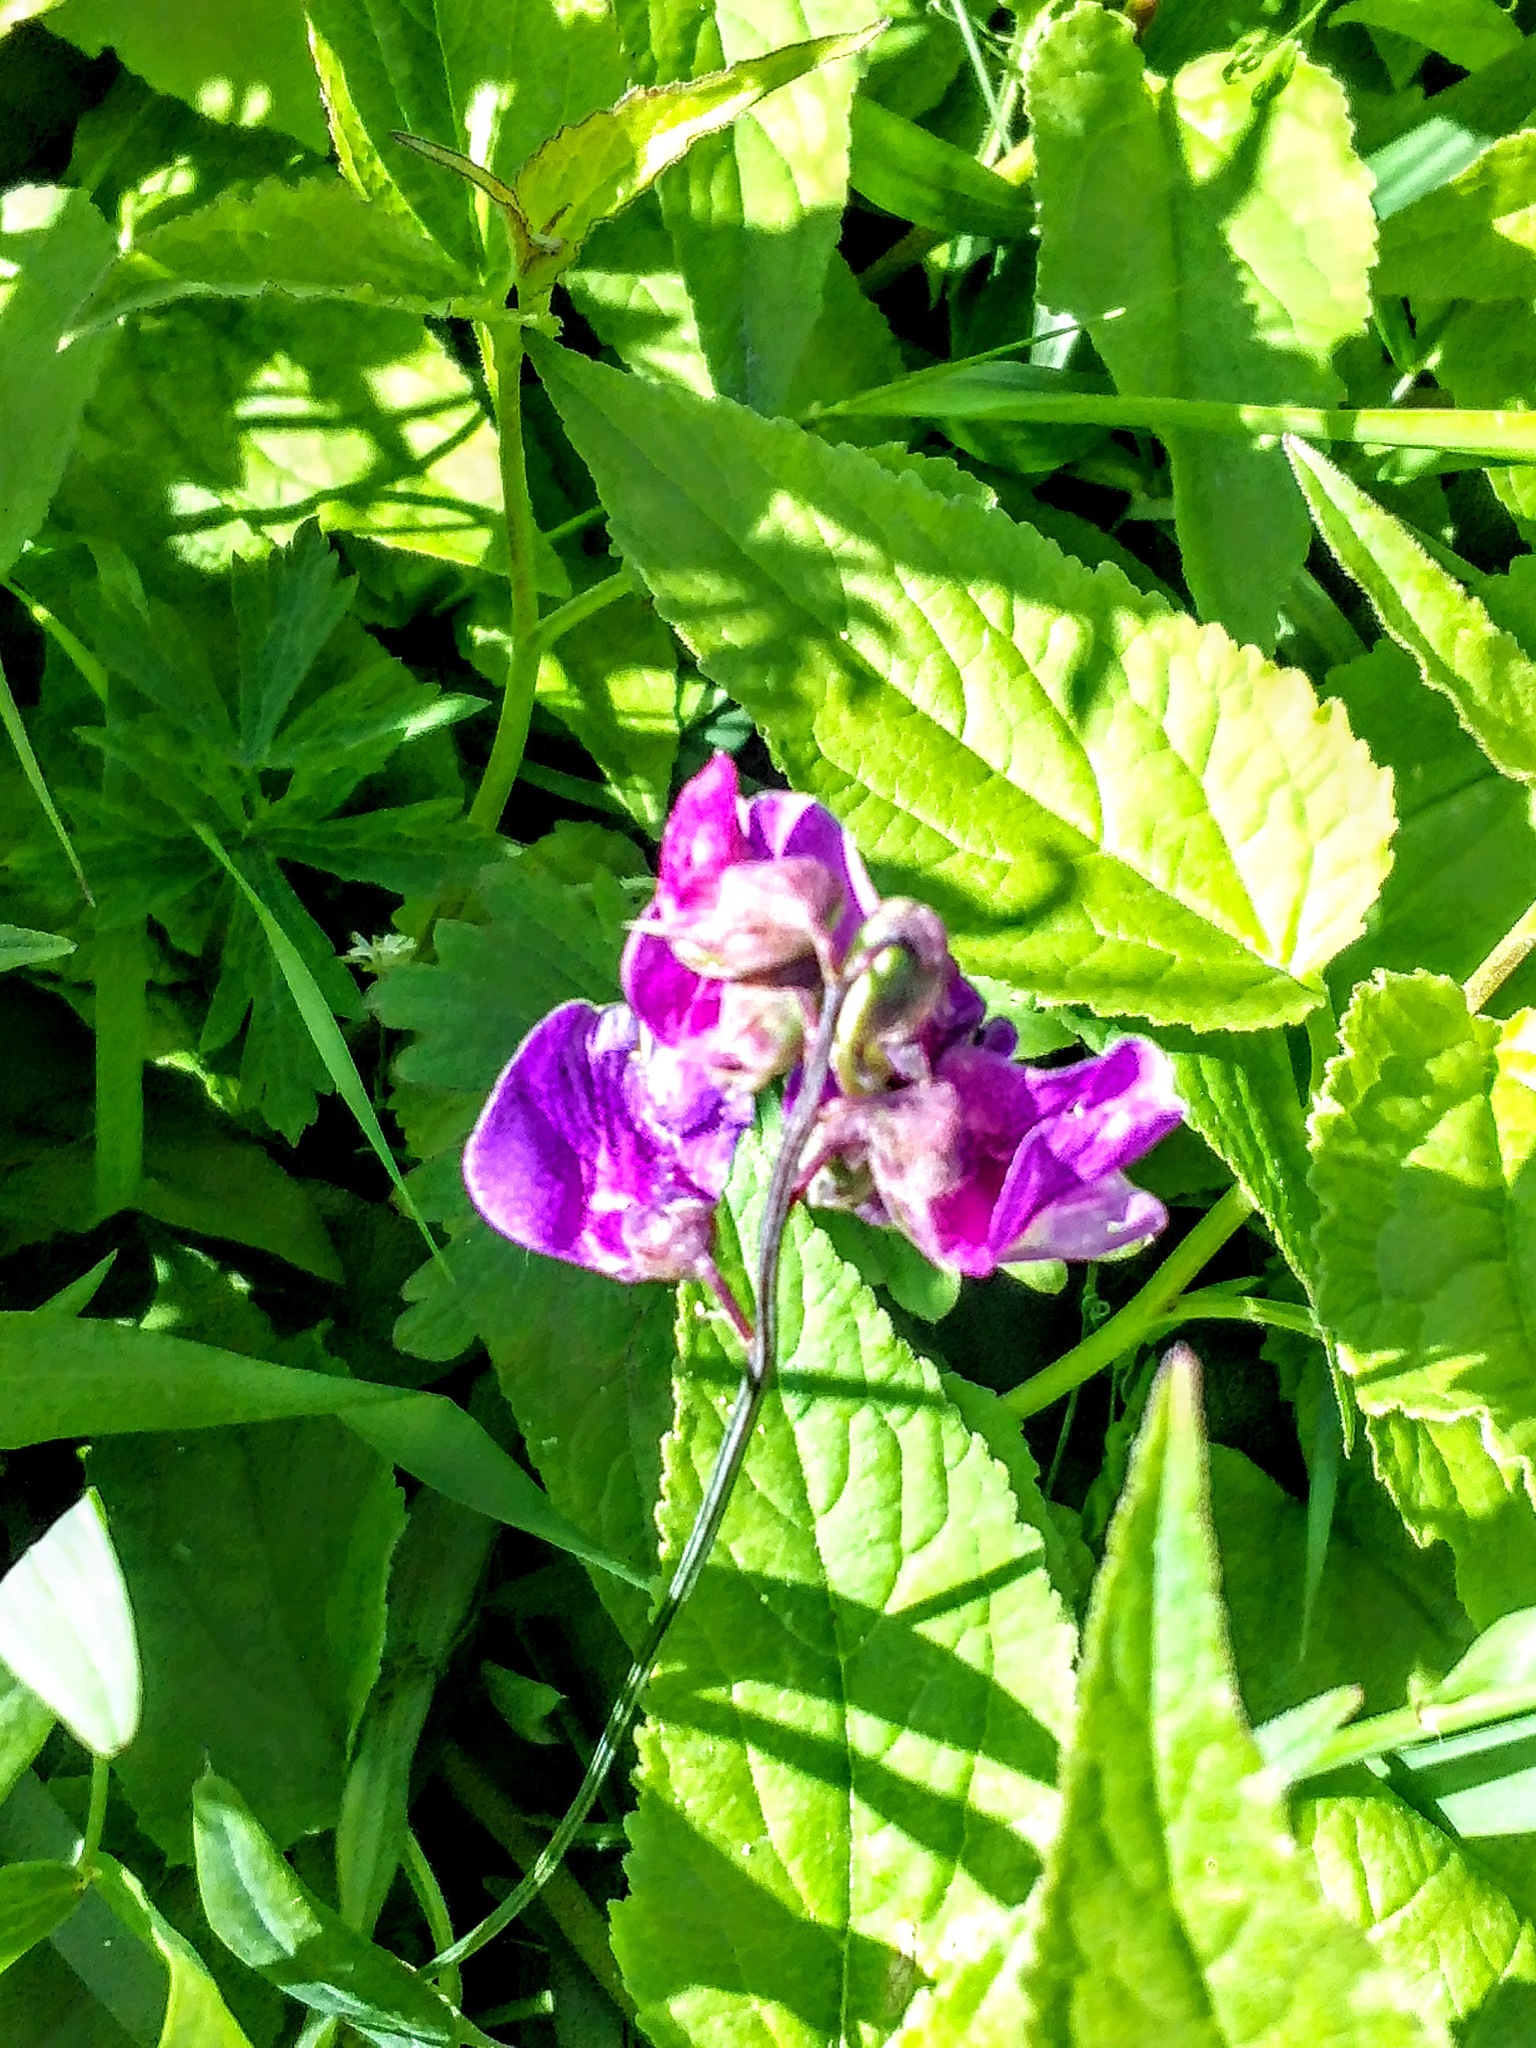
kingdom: Plantae
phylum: Tracheophyta
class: Magnoliopsida
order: Fabales
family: Fabaceae
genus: Lathyrus
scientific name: Lathyrus palustris
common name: Marsh pea
